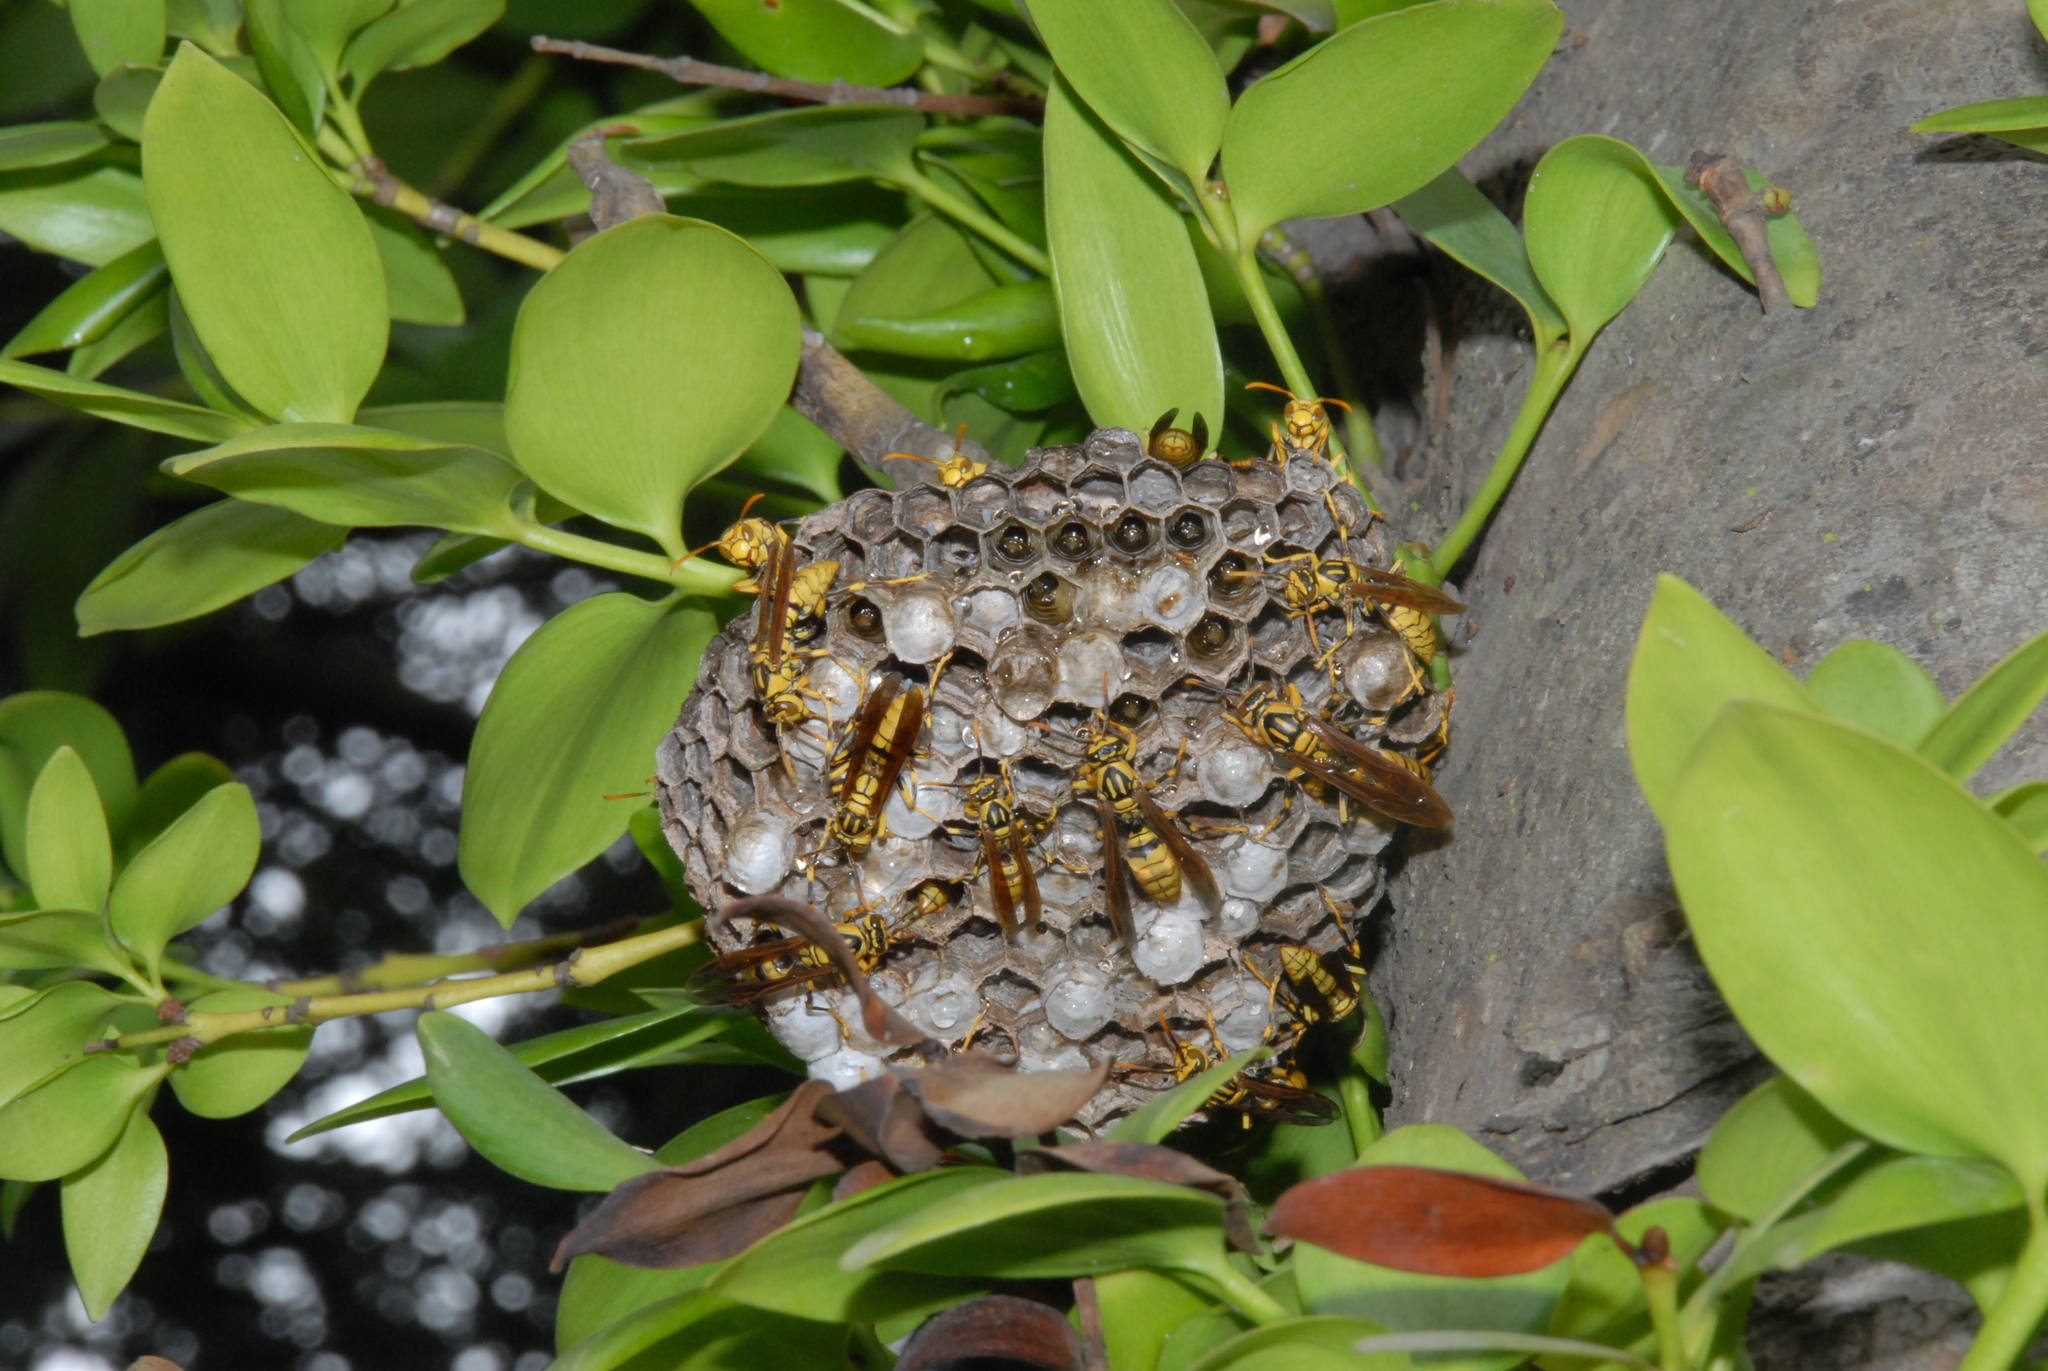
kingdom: Animalia
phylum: Arthropoda
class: Insecta
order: Hymenoptera
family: Eumenidae
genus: Polistes
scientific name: Polistes rothneyi
